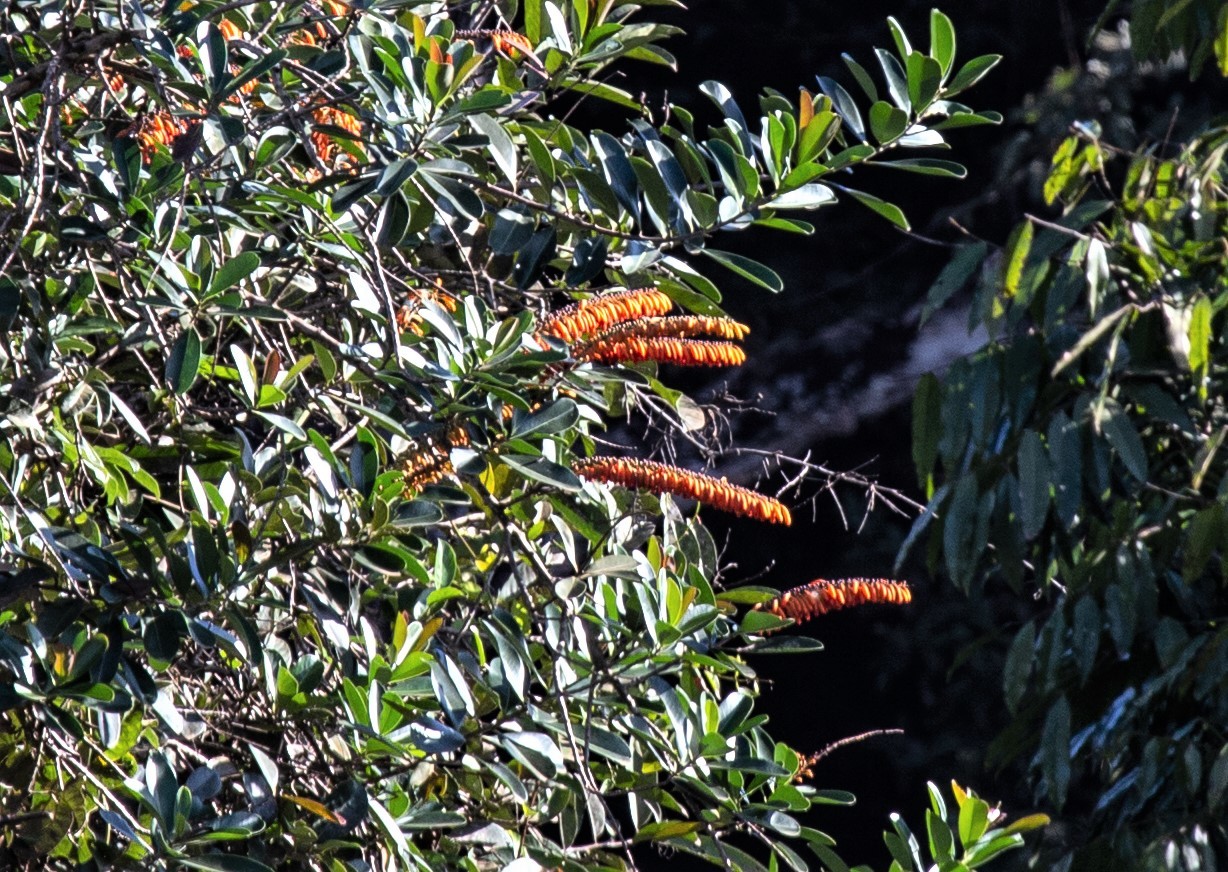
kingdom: Plantae
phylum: Tracheophyta
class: Magnoliopsida
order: Ericales
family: Marcgraviaceae
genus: Norantea
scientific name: Norantea guianensis
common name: Red hot poker vine
